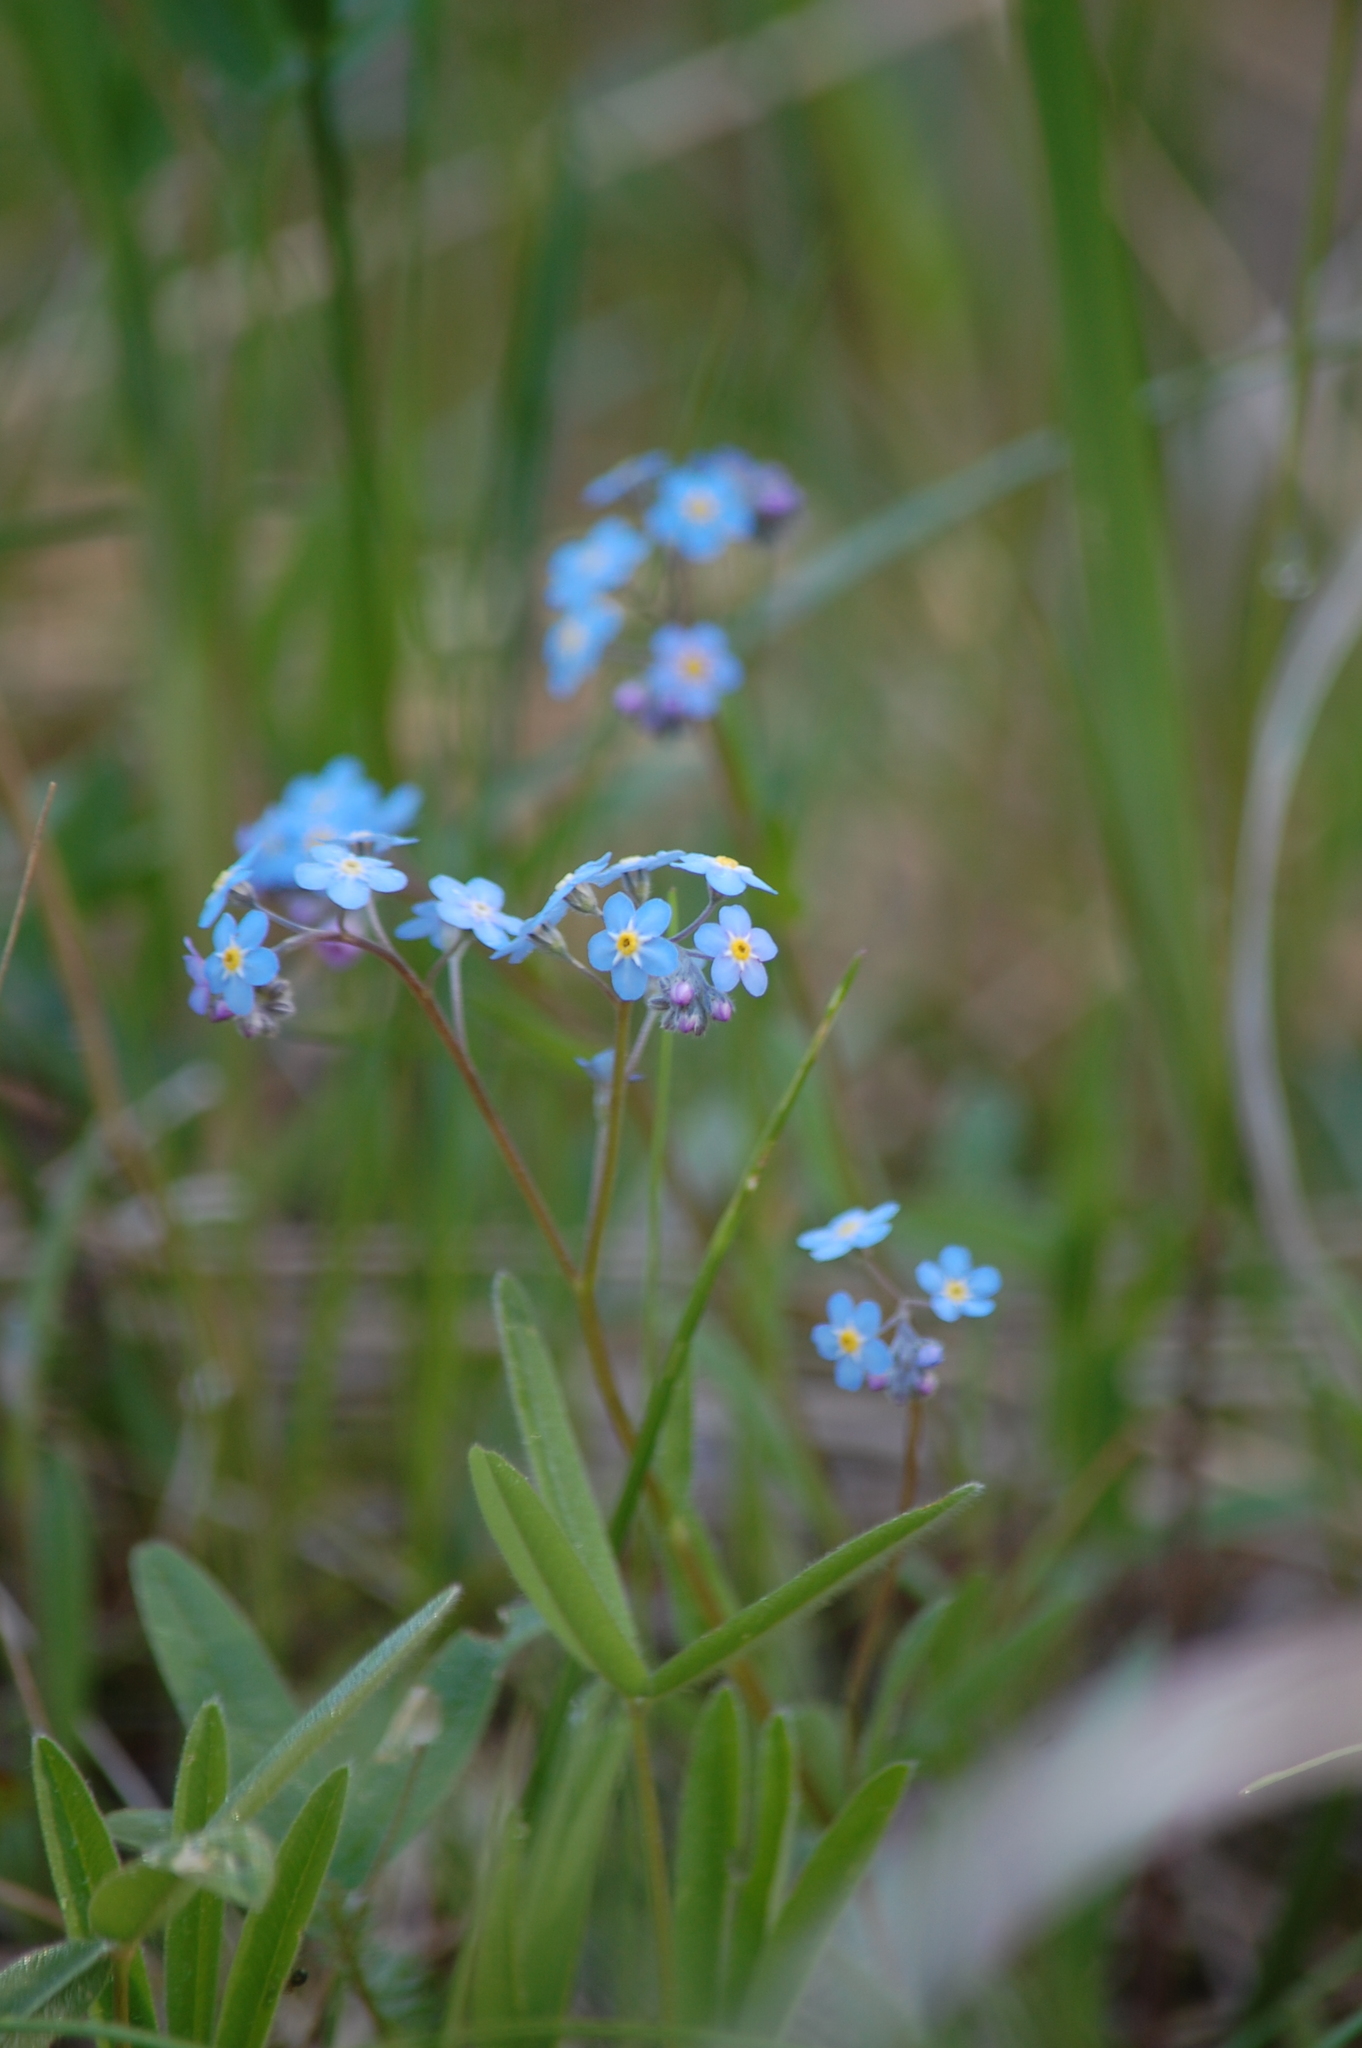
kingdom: Plantae
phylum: Tracheophyta
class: Magnoliopsida
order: Boraginales
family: Boraginaceae
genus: Myosotis
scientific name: Myosotis sylvatica
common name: Wood forget-me-not
